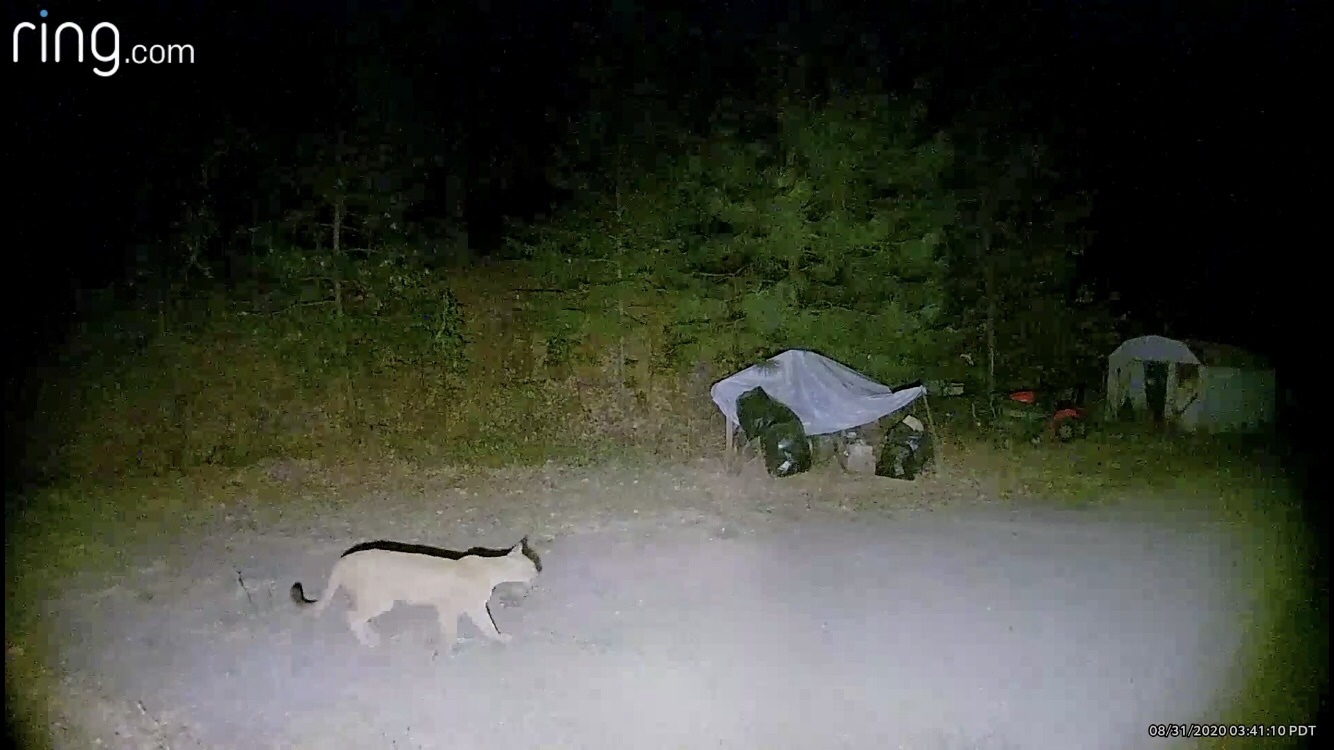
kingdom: Animalia
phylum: Chordata
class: Mammalia
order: Carnivora
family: Felidae
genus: Puma
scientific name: Puma concolor
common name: Puma
